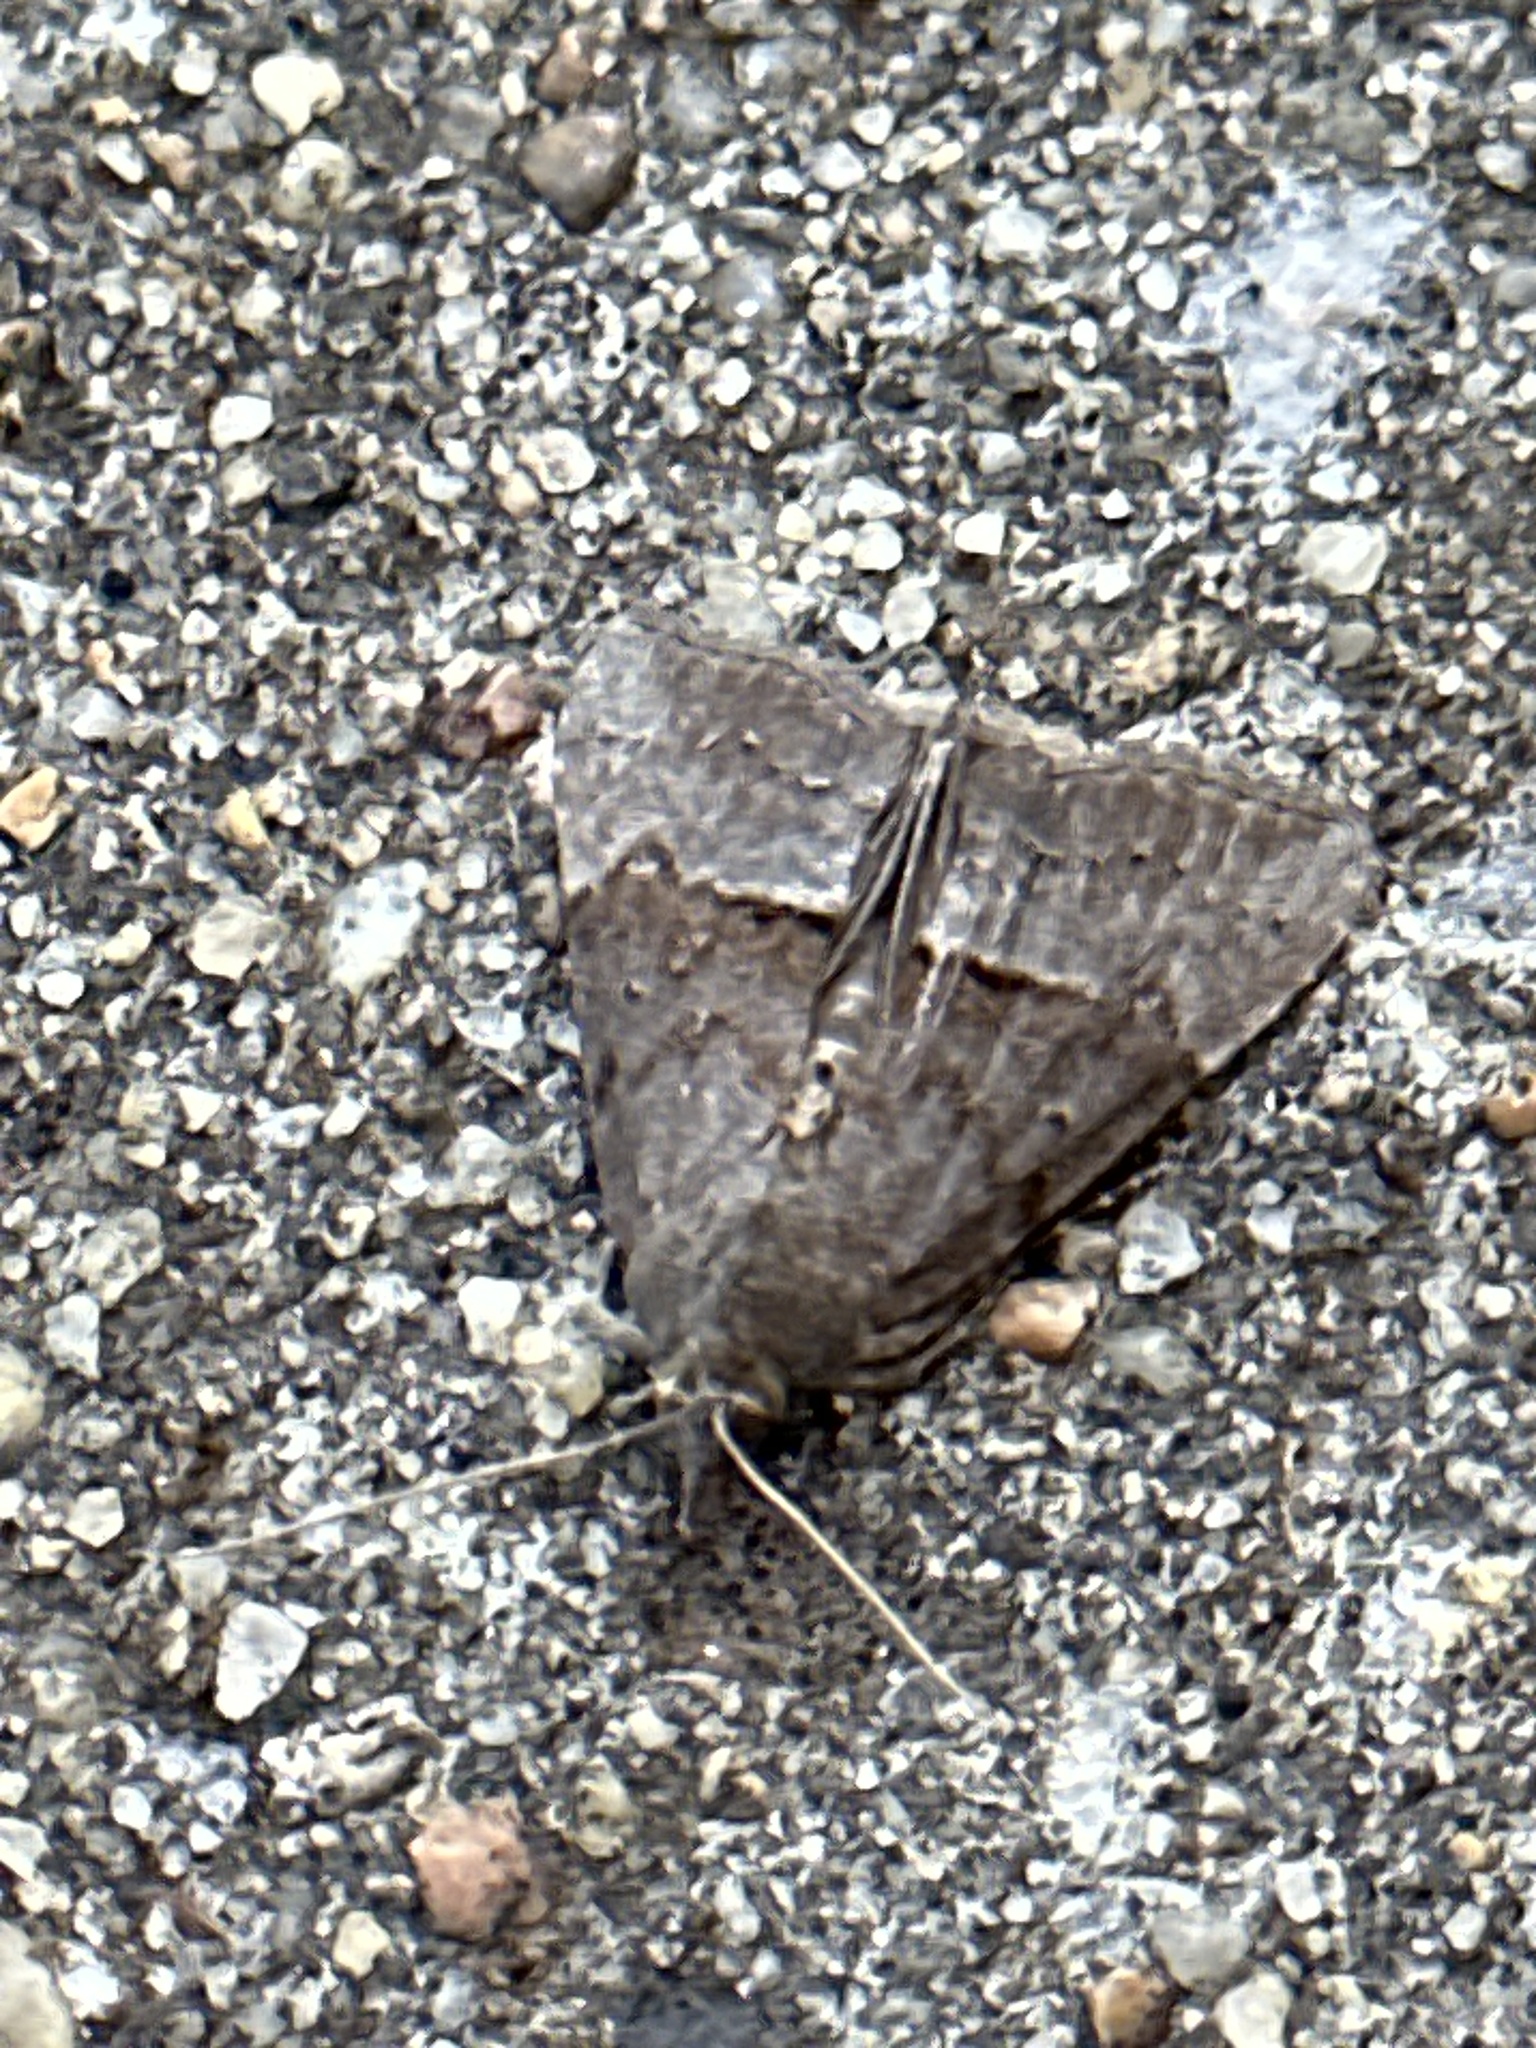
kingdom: Animalia
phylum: Arthropoda
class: Insecta
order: Lepidoptera
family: Erebidae
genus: Hypena
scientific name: Hypena scabra
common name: Green cloverworm
